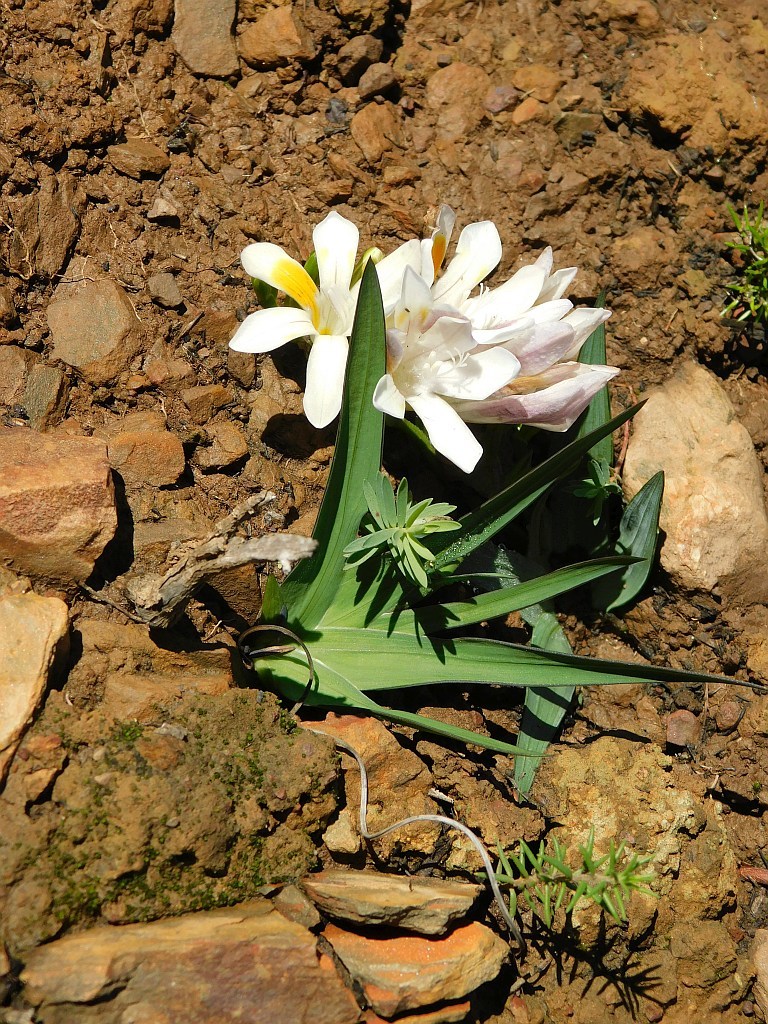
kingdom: Plantae
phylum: Tracheophyta
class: Liliopsida
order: Asparagales
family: Iridaceae
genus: Freesia
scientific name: Freesia caryophyllacea
